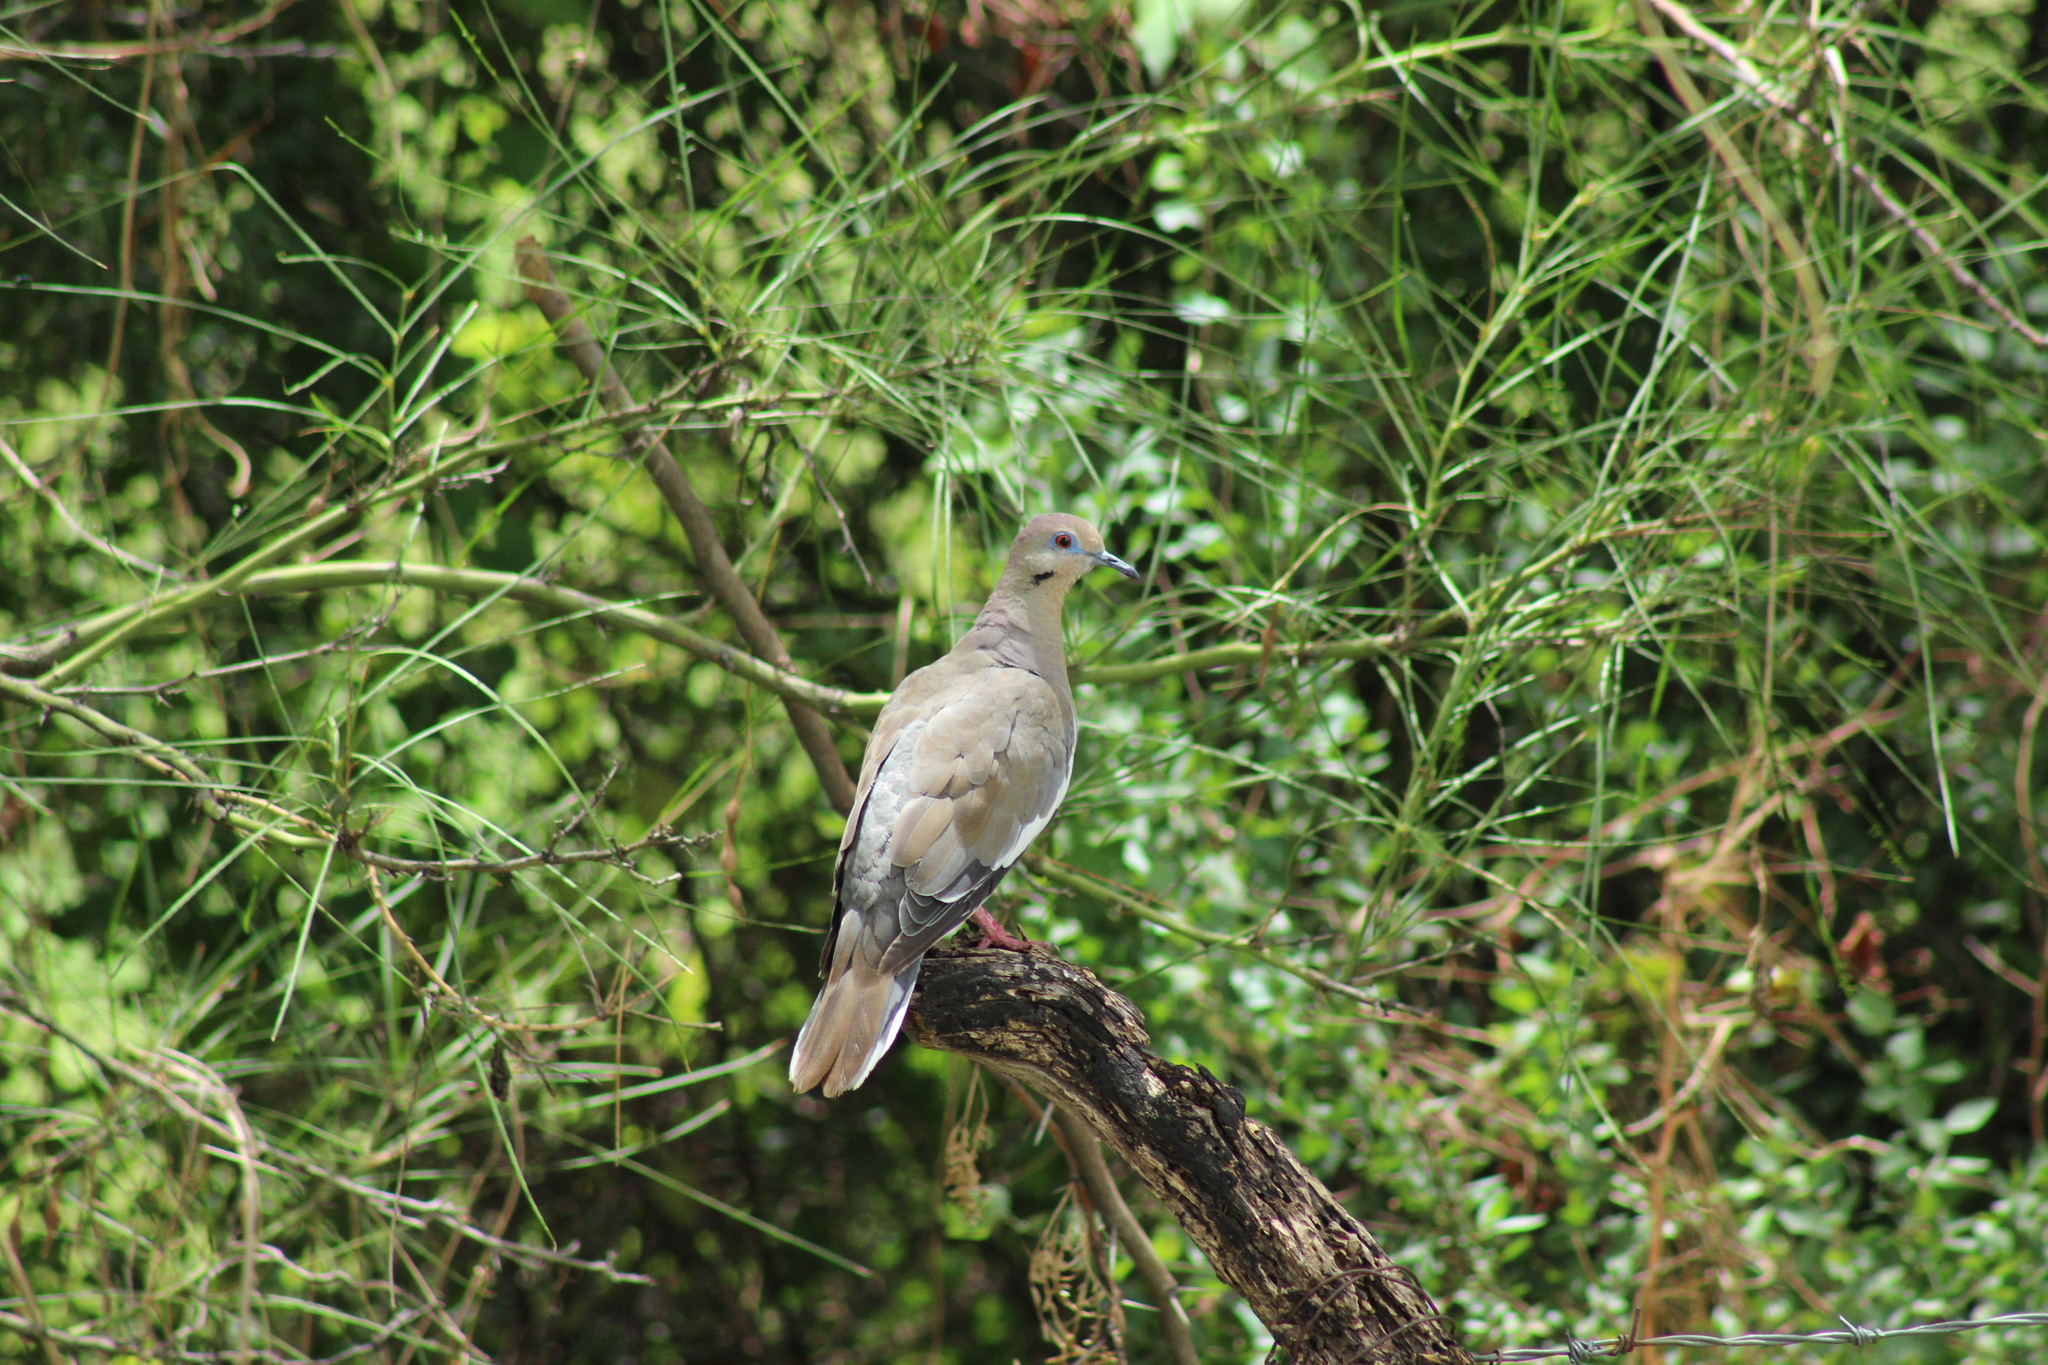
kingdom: Animalia
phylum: Chordata
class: Aves
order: Columbiformes
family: Columbidae
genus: Zenaida
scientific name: Zenaida asiatica
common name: White-winged dove
